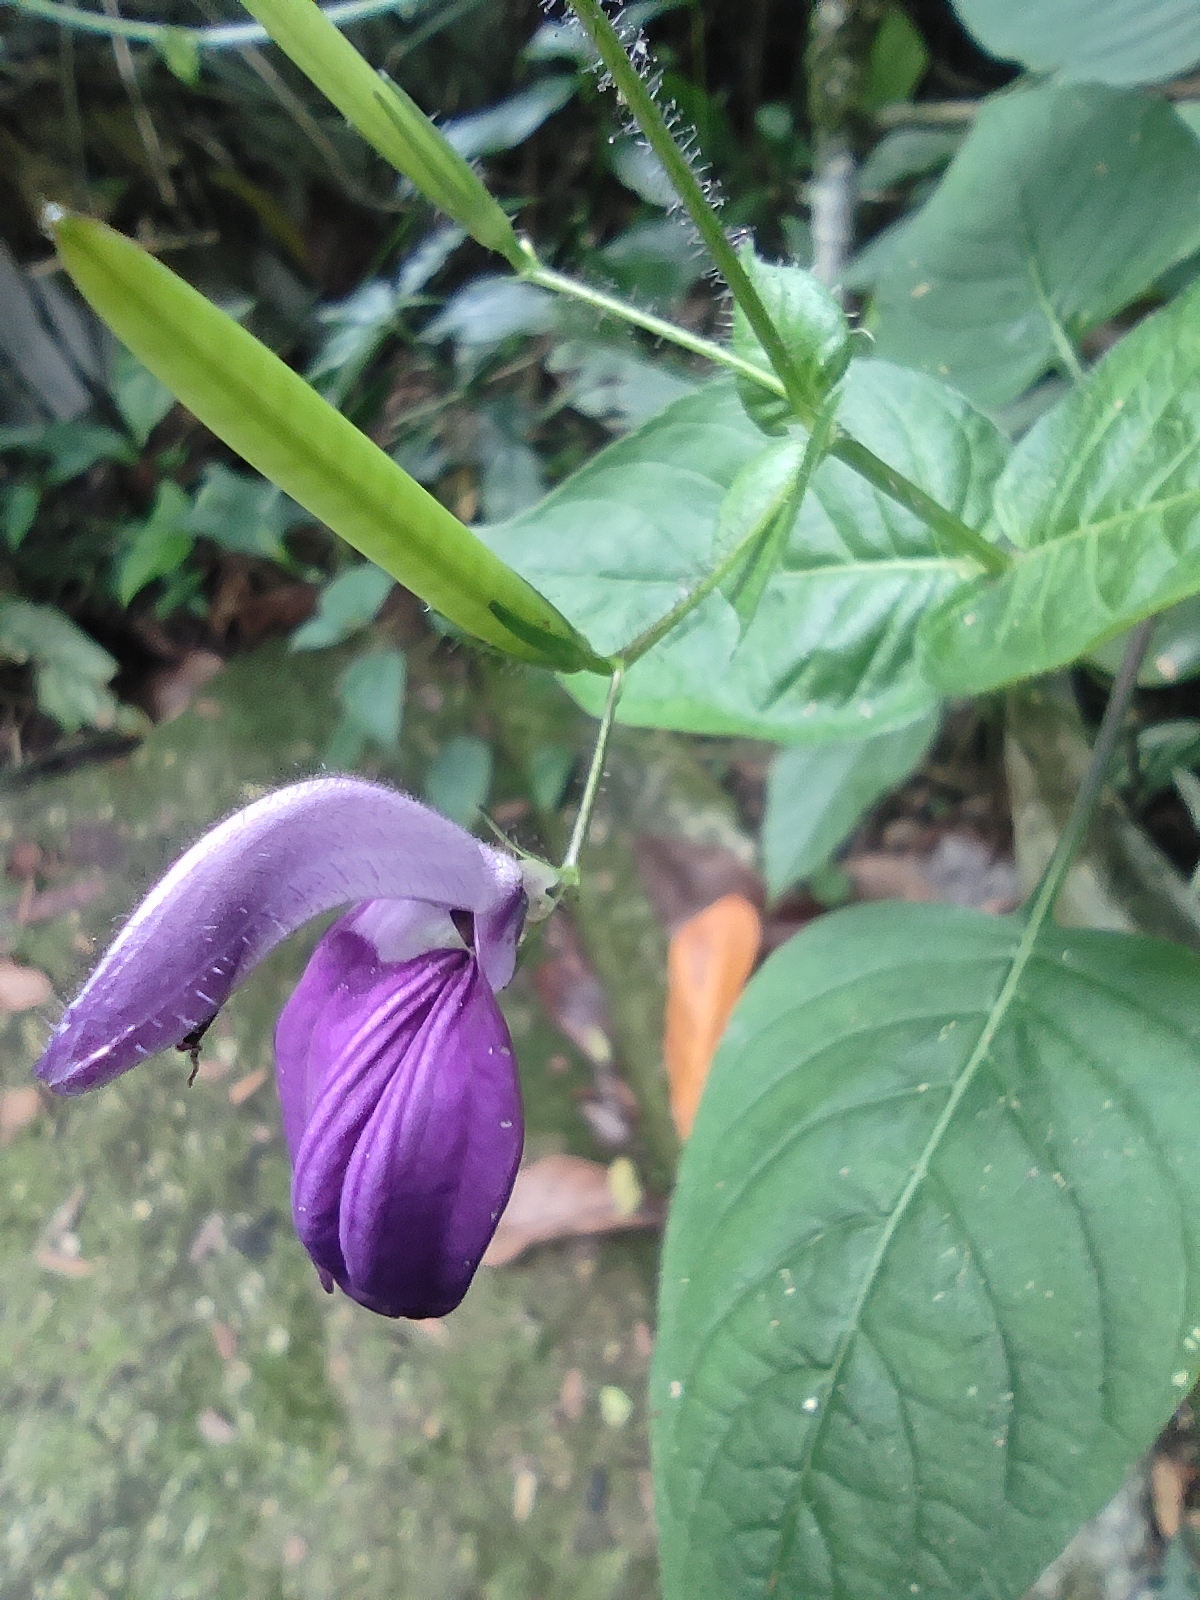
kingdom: Plantae
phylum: Tracheophyta
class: Magnoliopsida
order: Lamiales
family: Acanthaceae
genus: Brillantaisia
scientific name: Brillantaisia lamium
